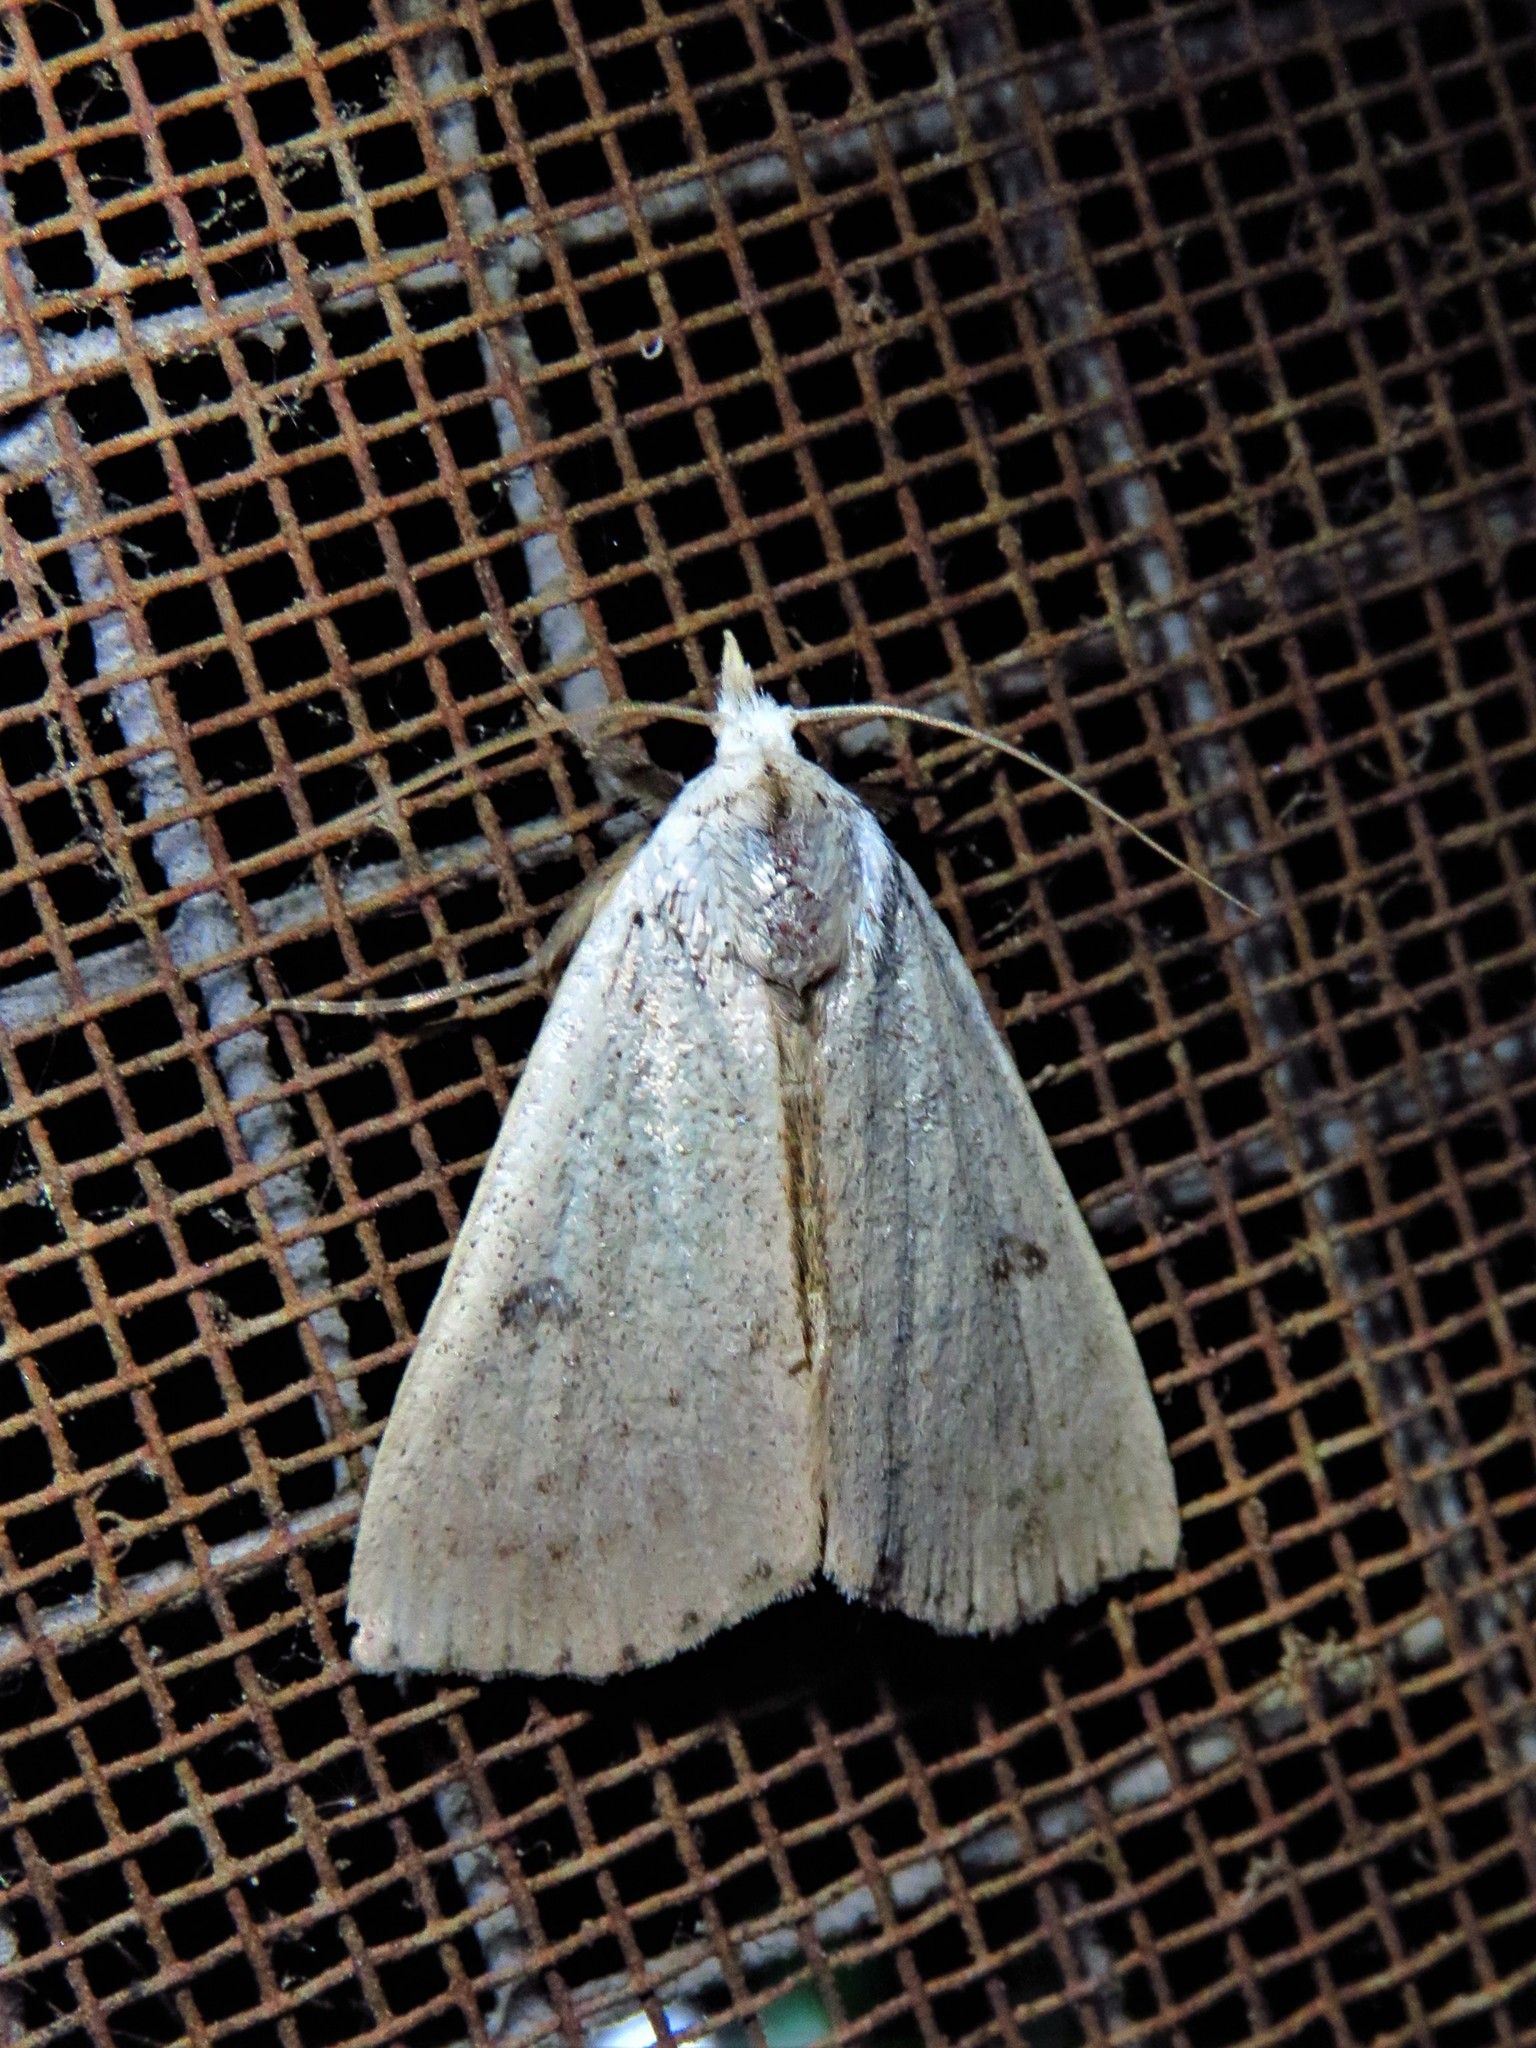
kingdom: Animalia
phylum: Arthropoda
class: Insecta
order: Lepidoptera
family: Erebidae
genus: Scolecocampa
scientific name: Scolecocampa liburna
